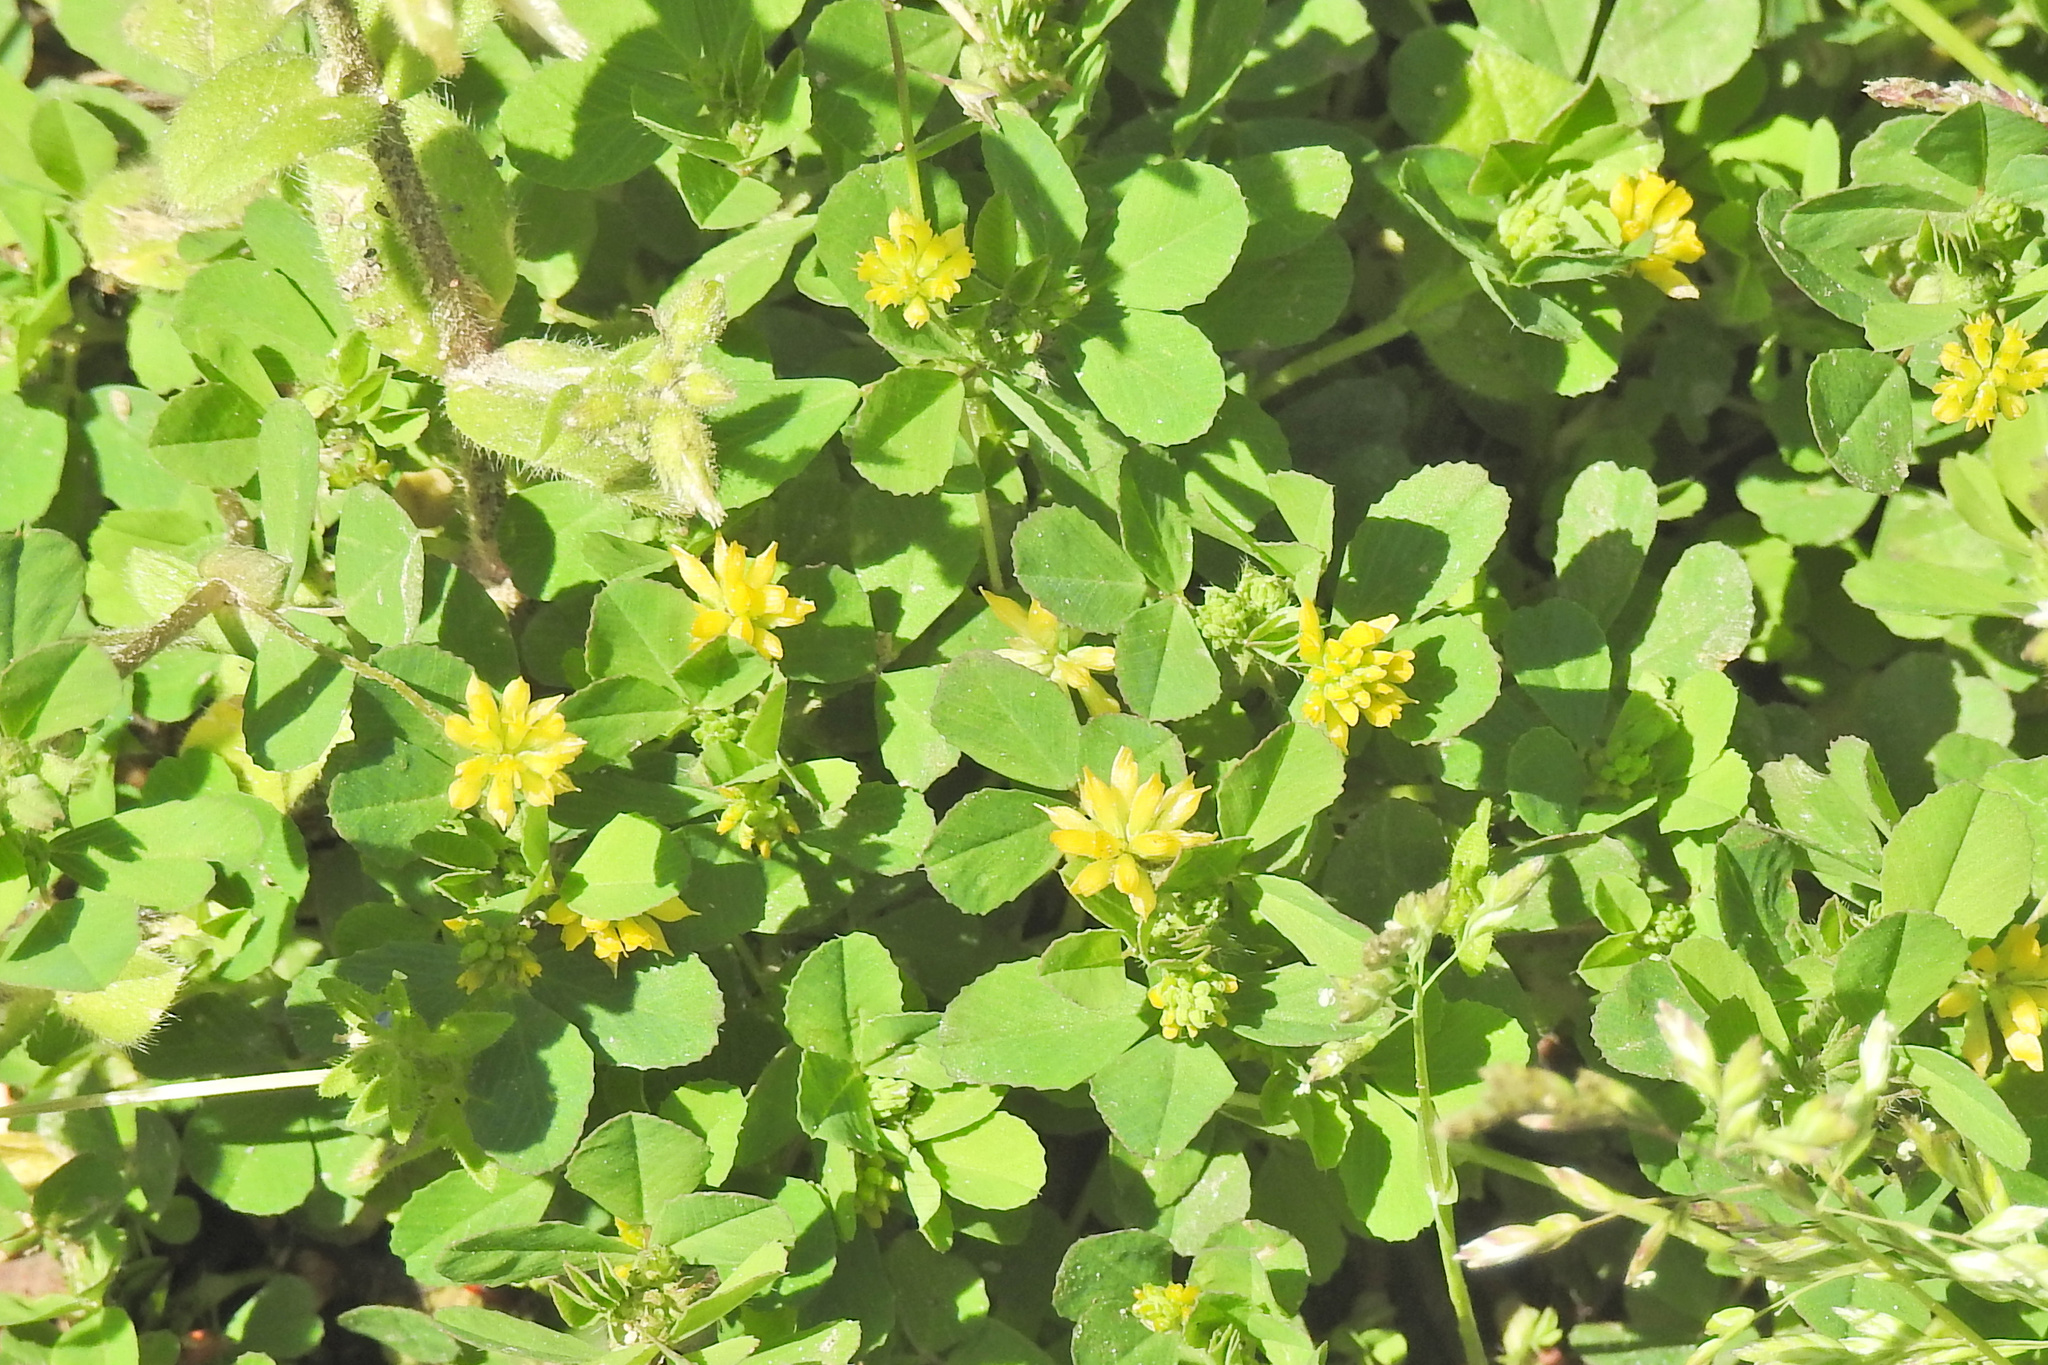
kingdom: Plantae
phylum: Tracheophyta
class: Magnoliopsida
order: Fabales
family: Fabaceae
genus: Trifolium
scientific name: Trifolium dubium
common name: Suckling clover
